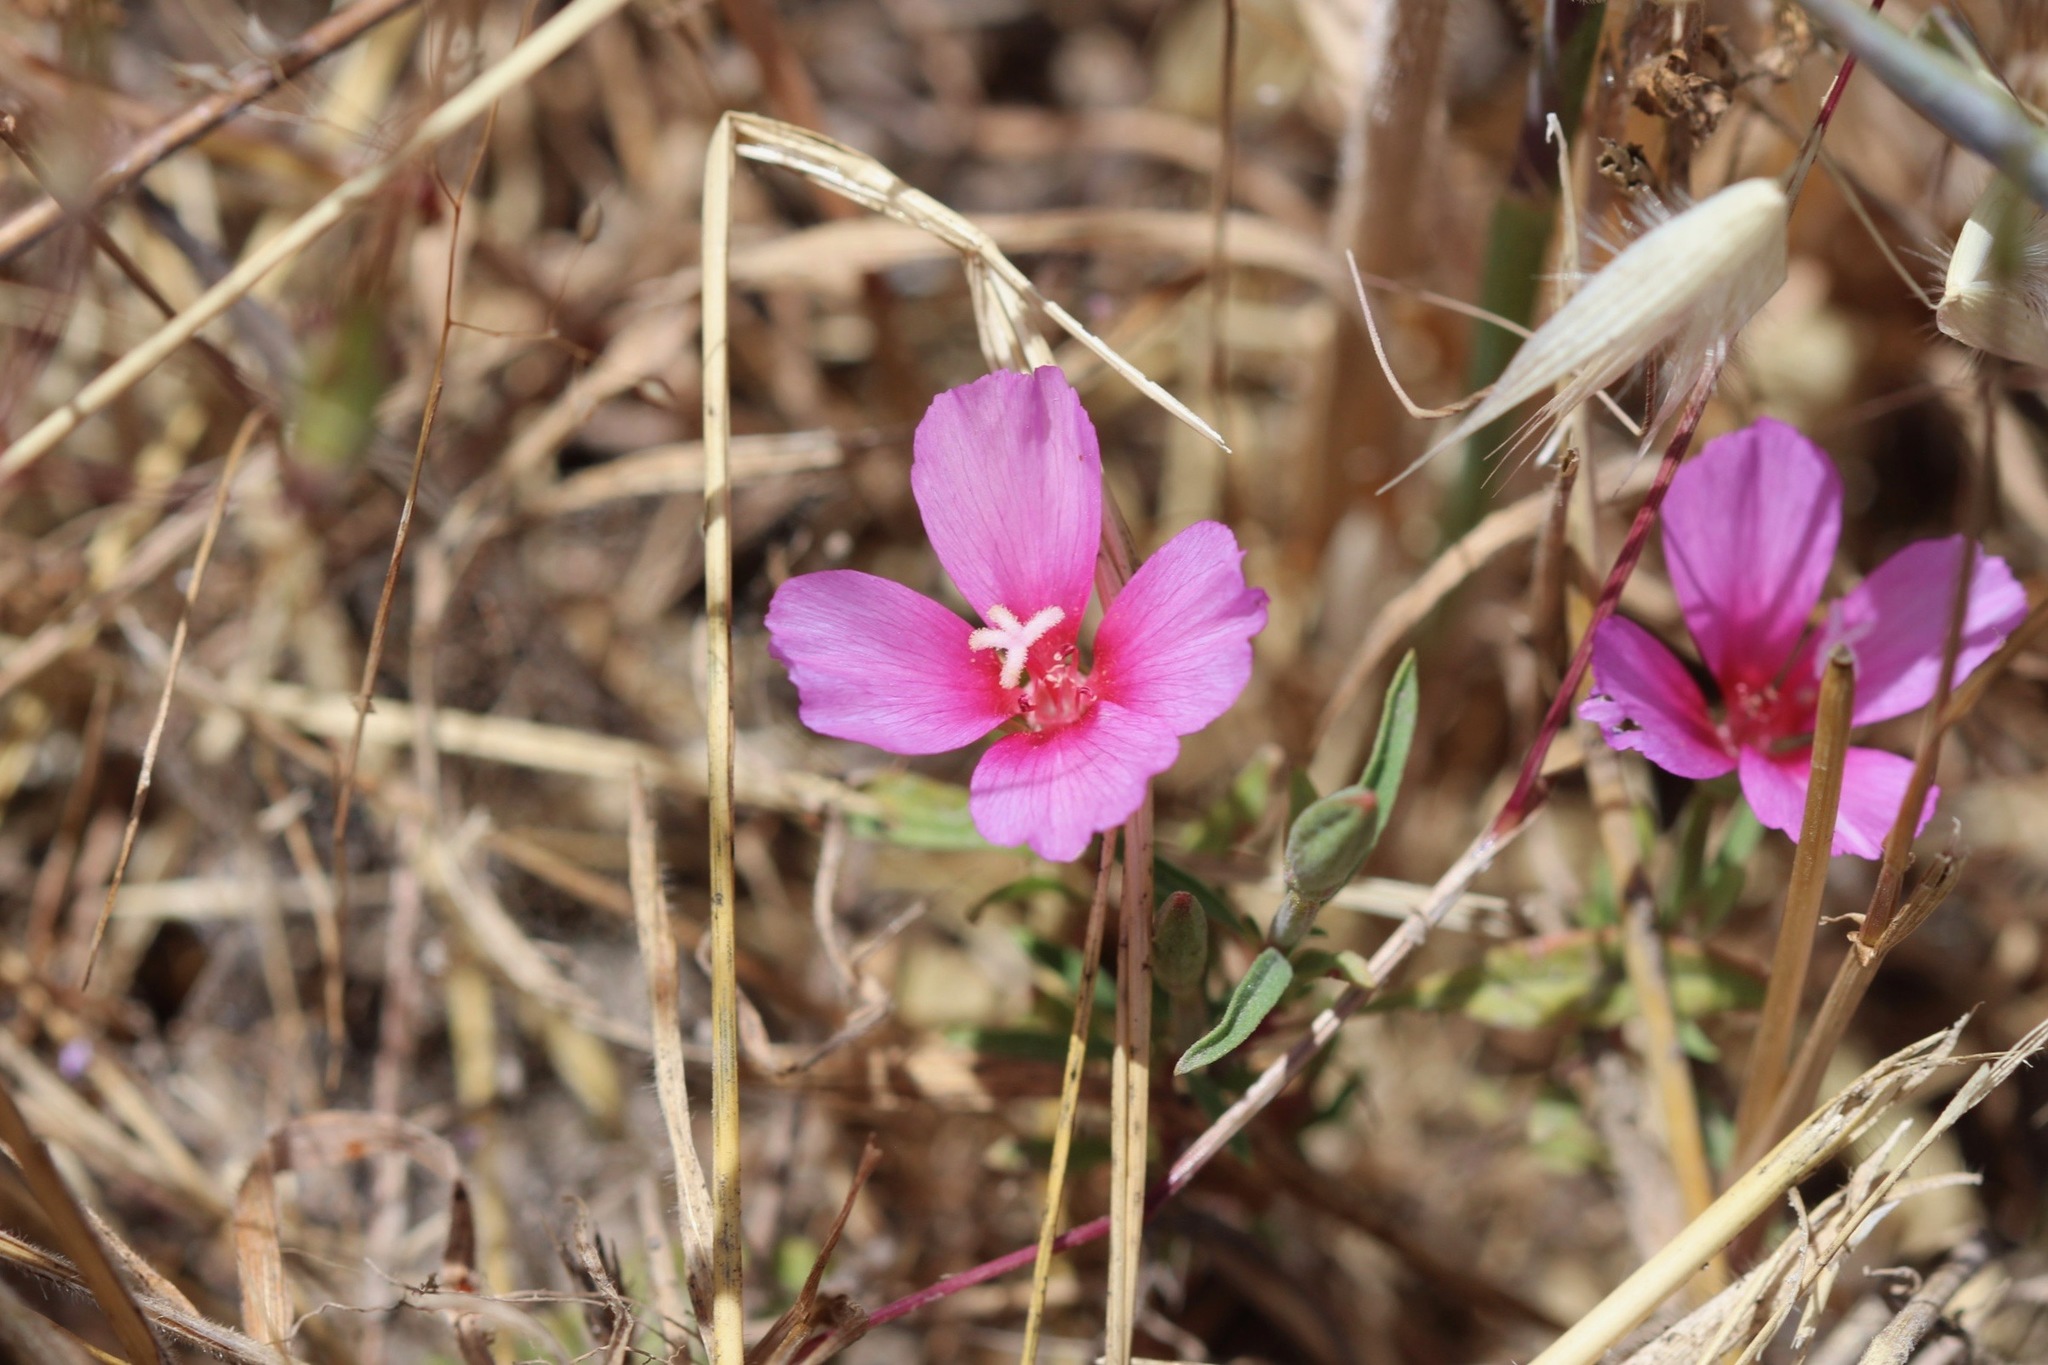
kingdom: Plantae
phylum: Tracheophyta
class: Magnoliopsida
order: Myrtales
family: Onagraceae
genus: Clarkia
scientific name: Clarkia rubicunda
